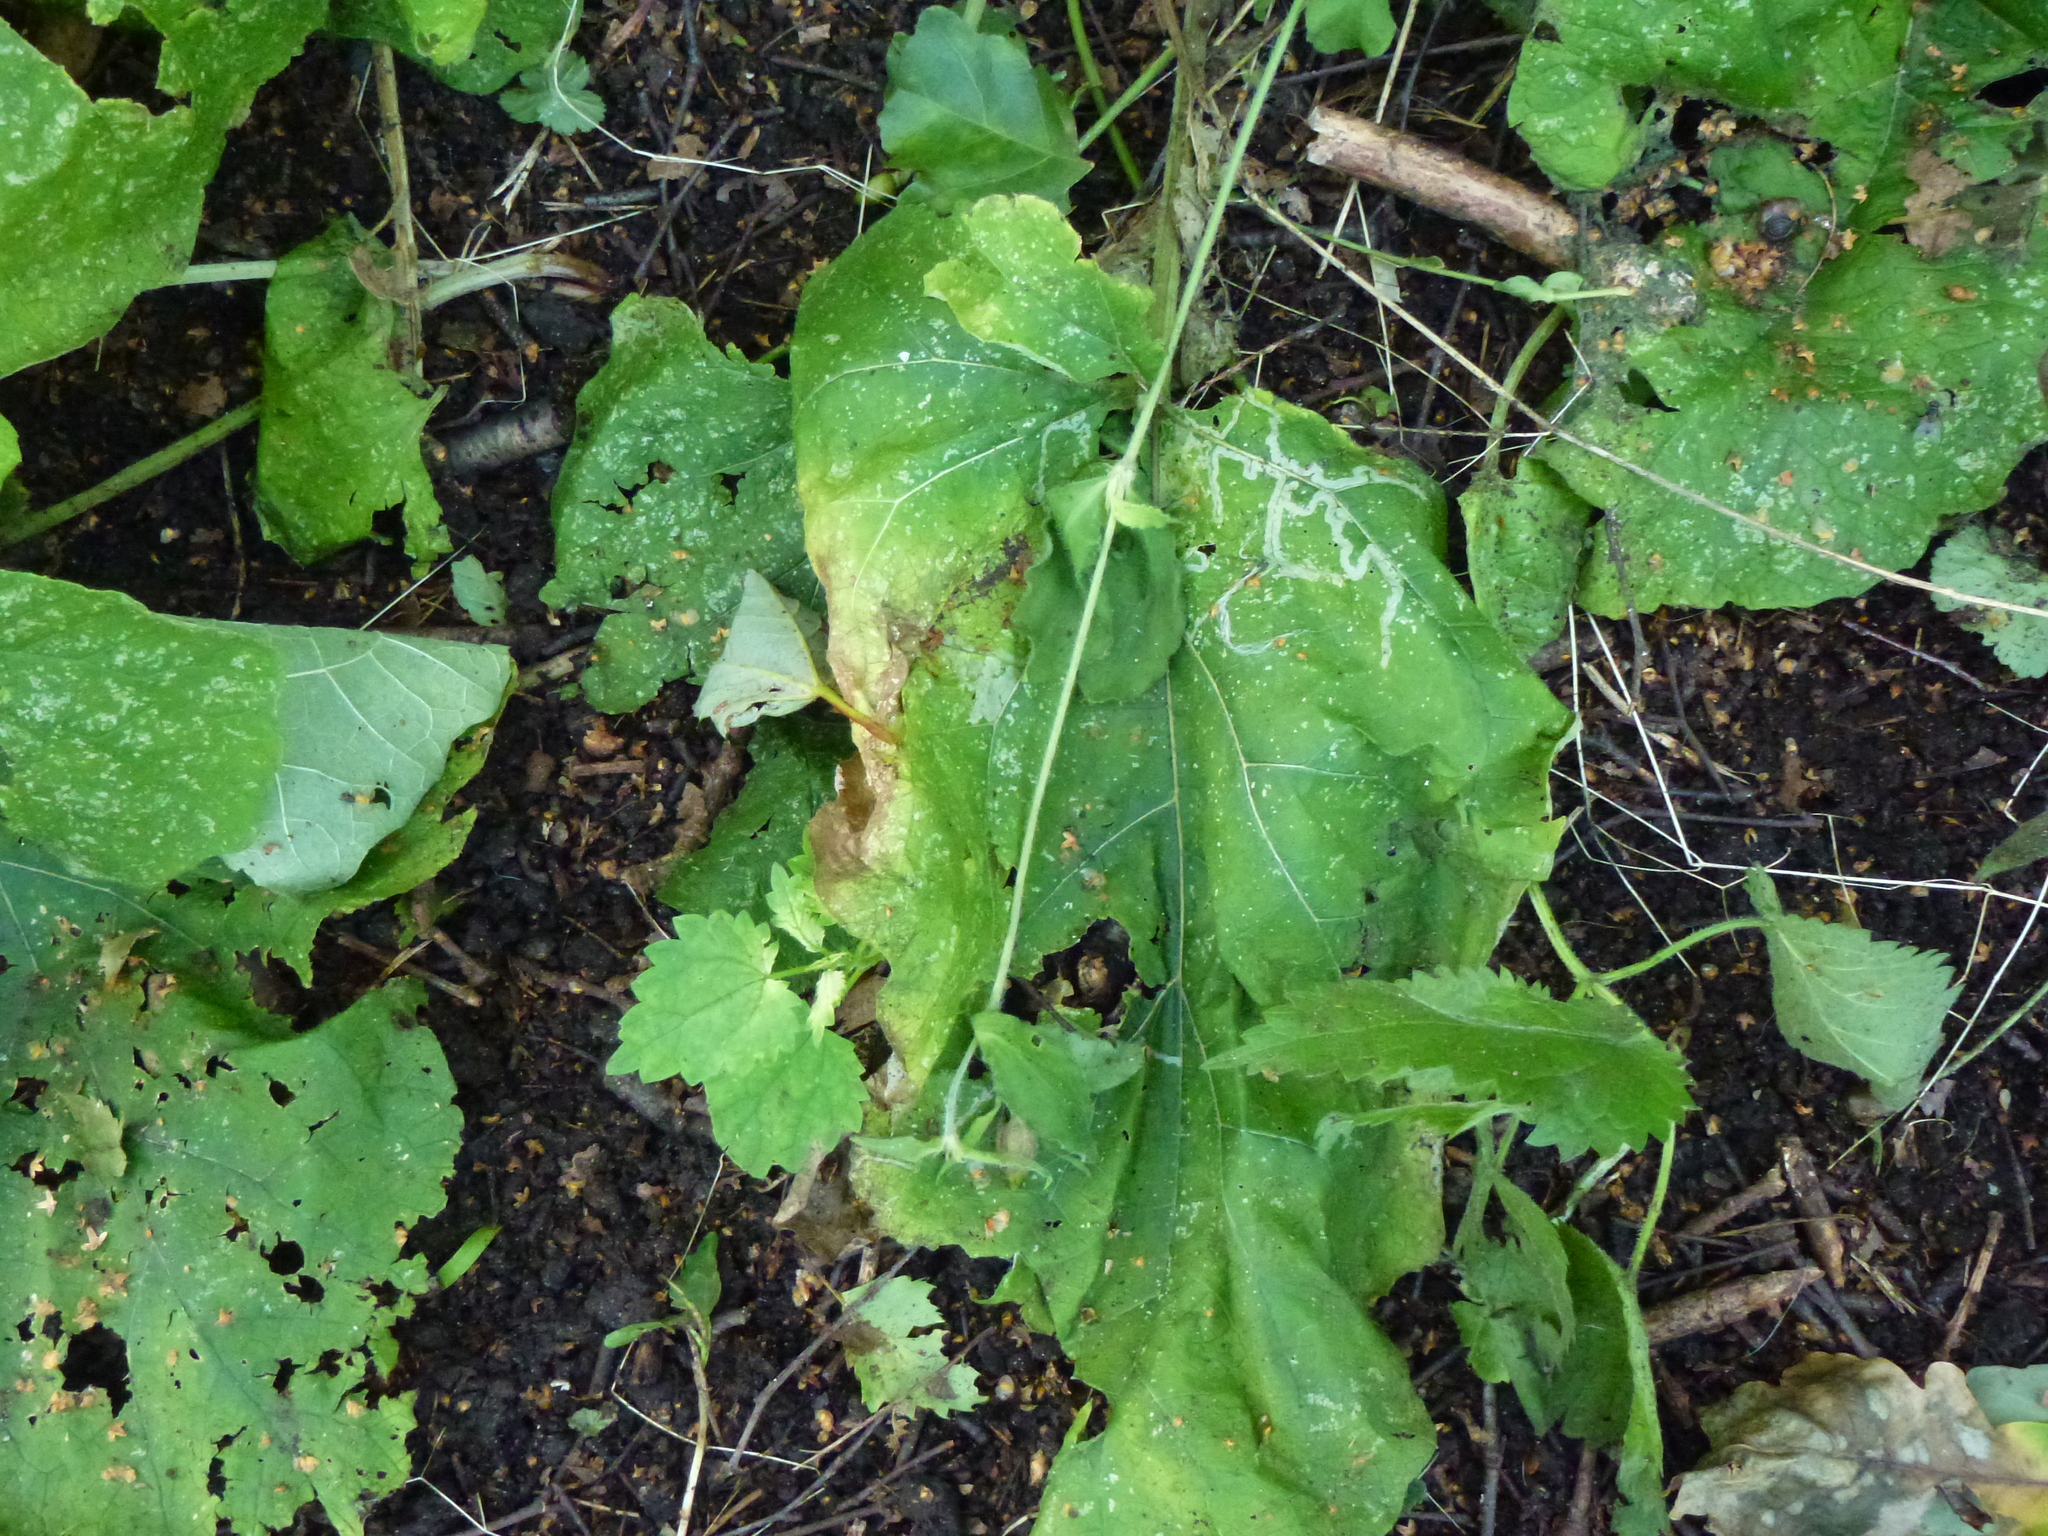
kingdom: Animalia
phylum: Arthropoda
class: Insecta
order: Diptera
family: Agromyzidae
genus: Phytomyza
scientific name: Phytomyza lappae
